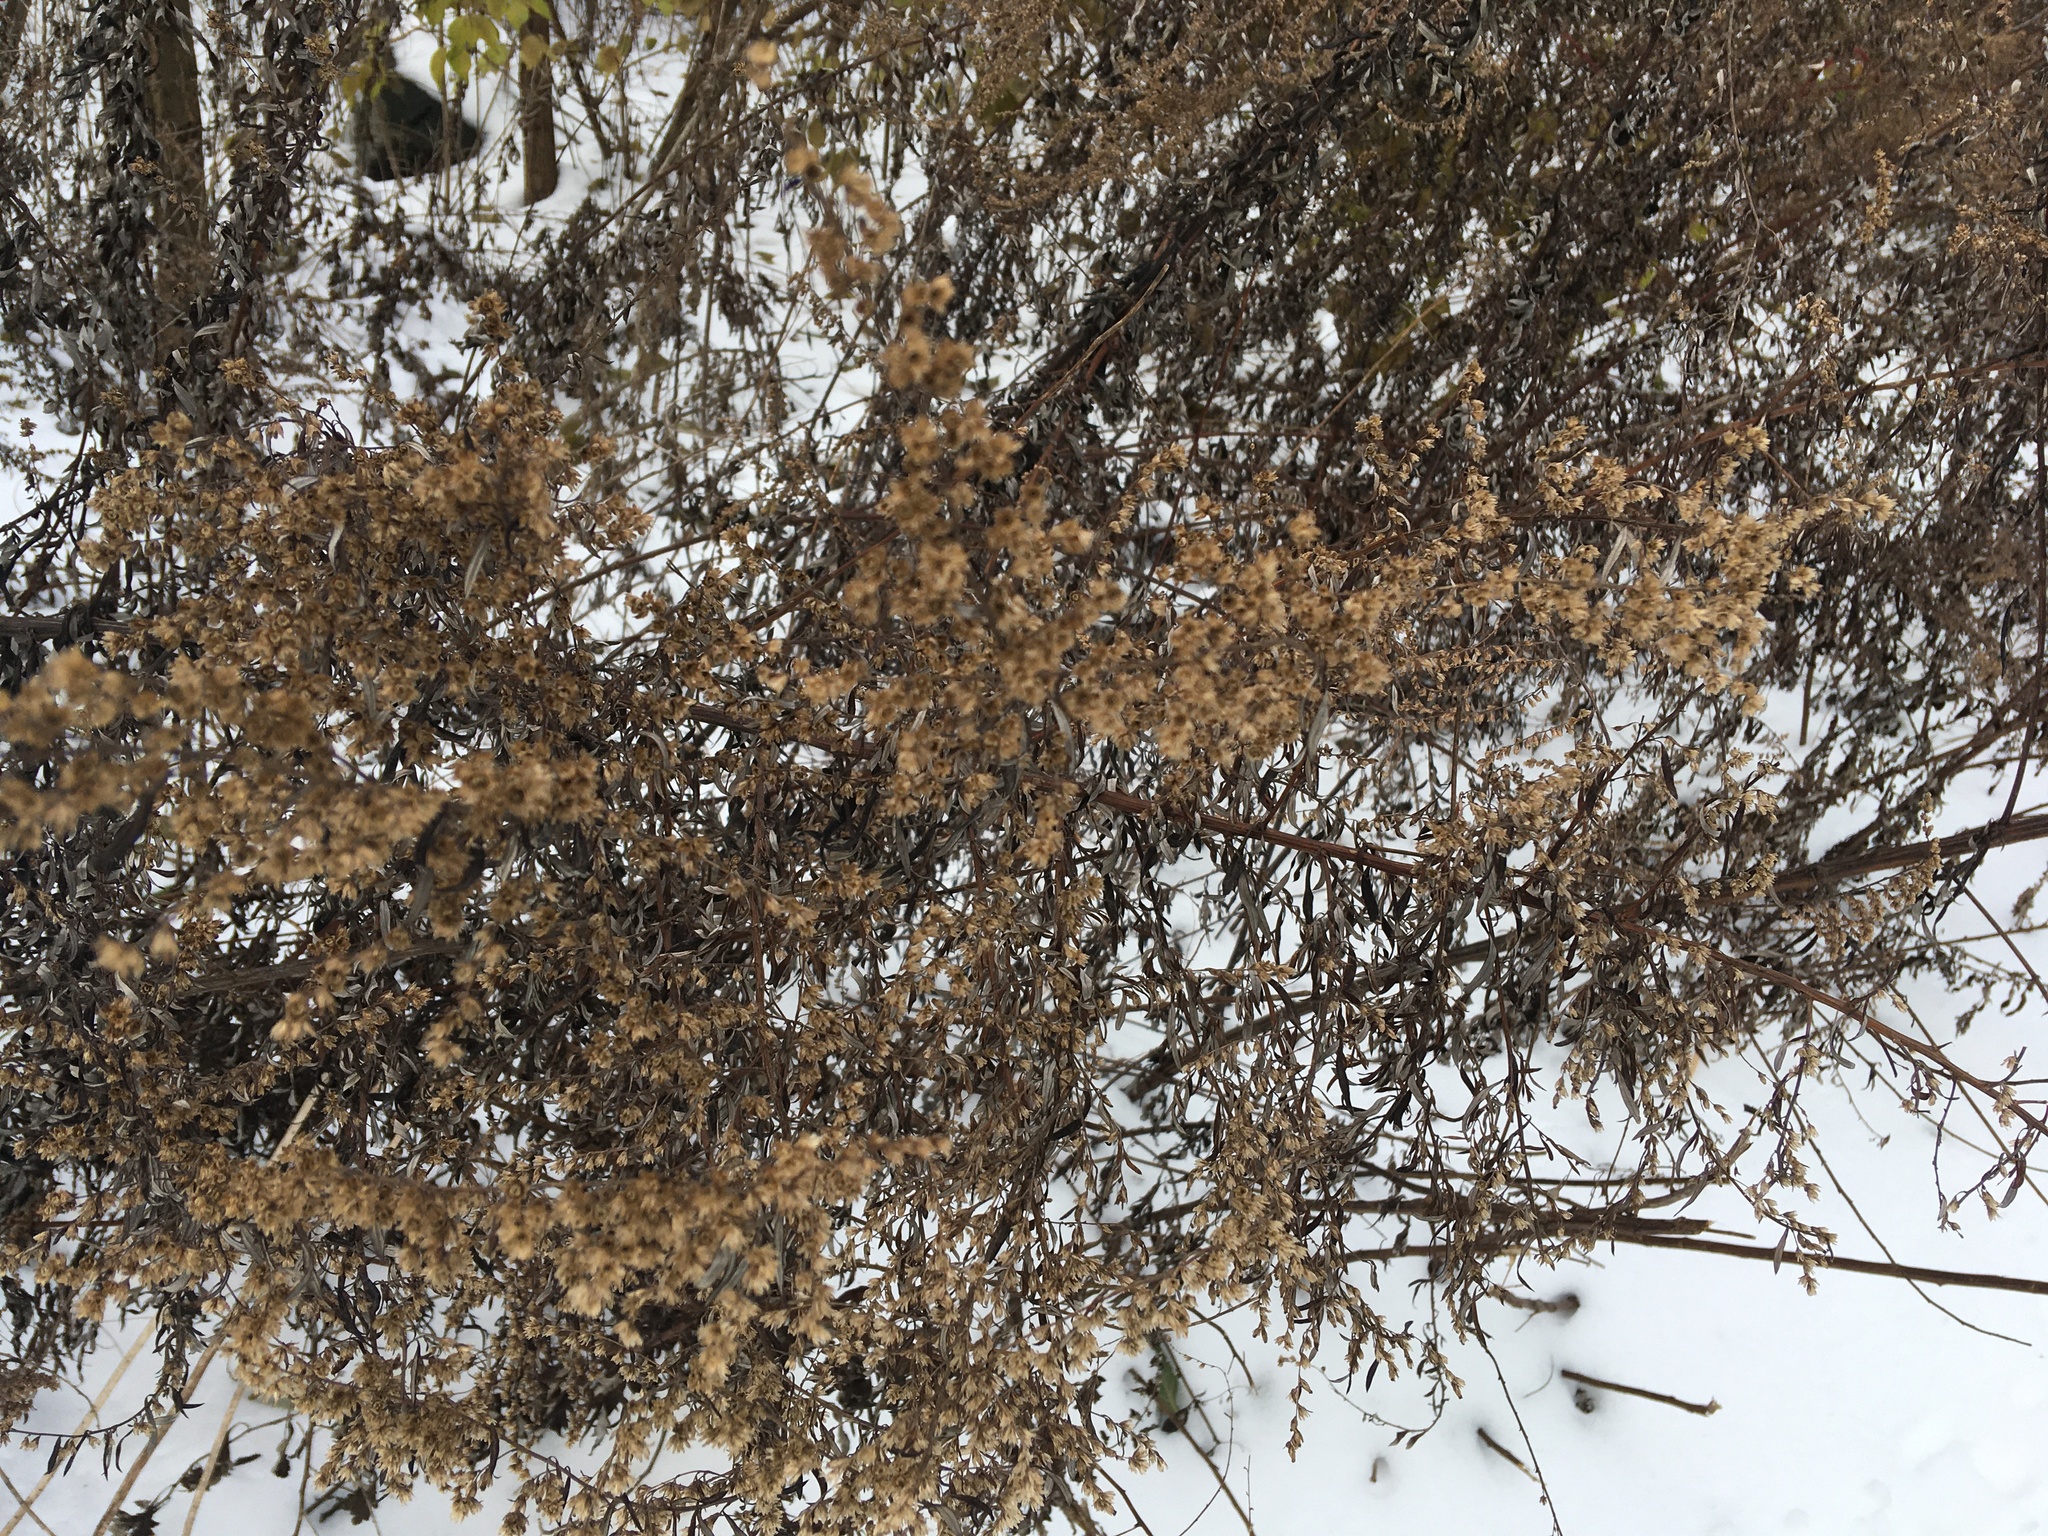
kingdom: Plantae
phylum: Tracheophyta
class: Magnoliopsida
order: Asterales
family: Asteraceae
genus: Artemisia
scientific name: Artemisia vulgaris
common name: Mugwort
